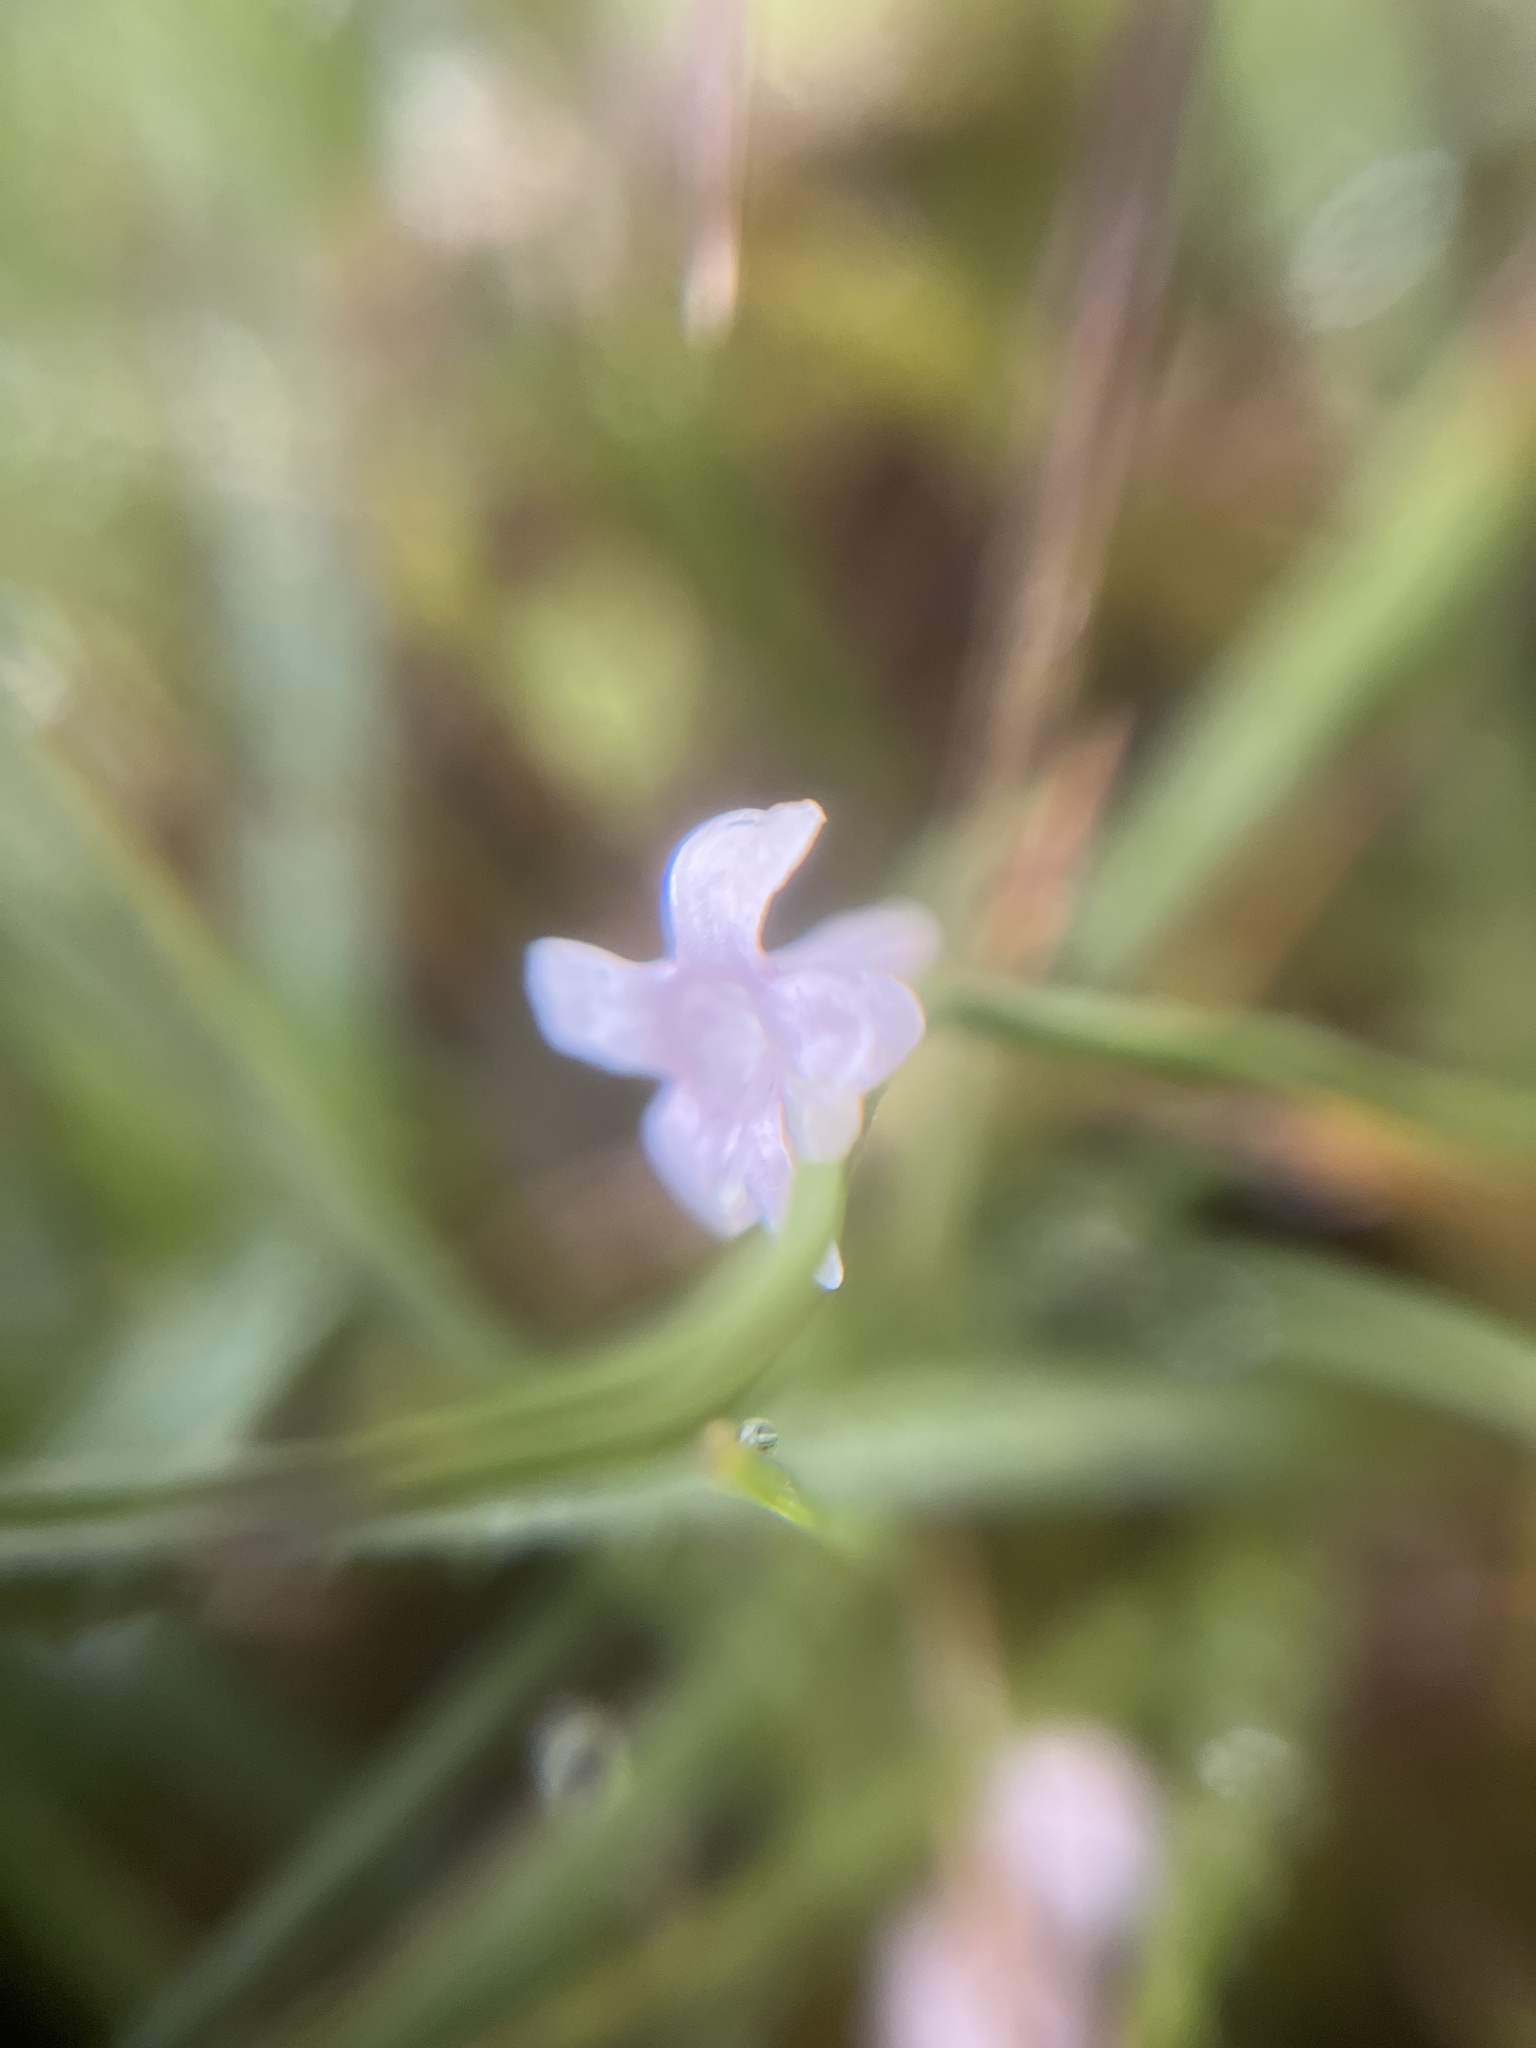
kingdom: Plantae
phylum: Tracheophyta
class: Magnoliopsida
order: Ericales
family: Primulaceae
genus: Lysimachia
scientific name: Lysimachia tenella
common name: European bog pimpernel
